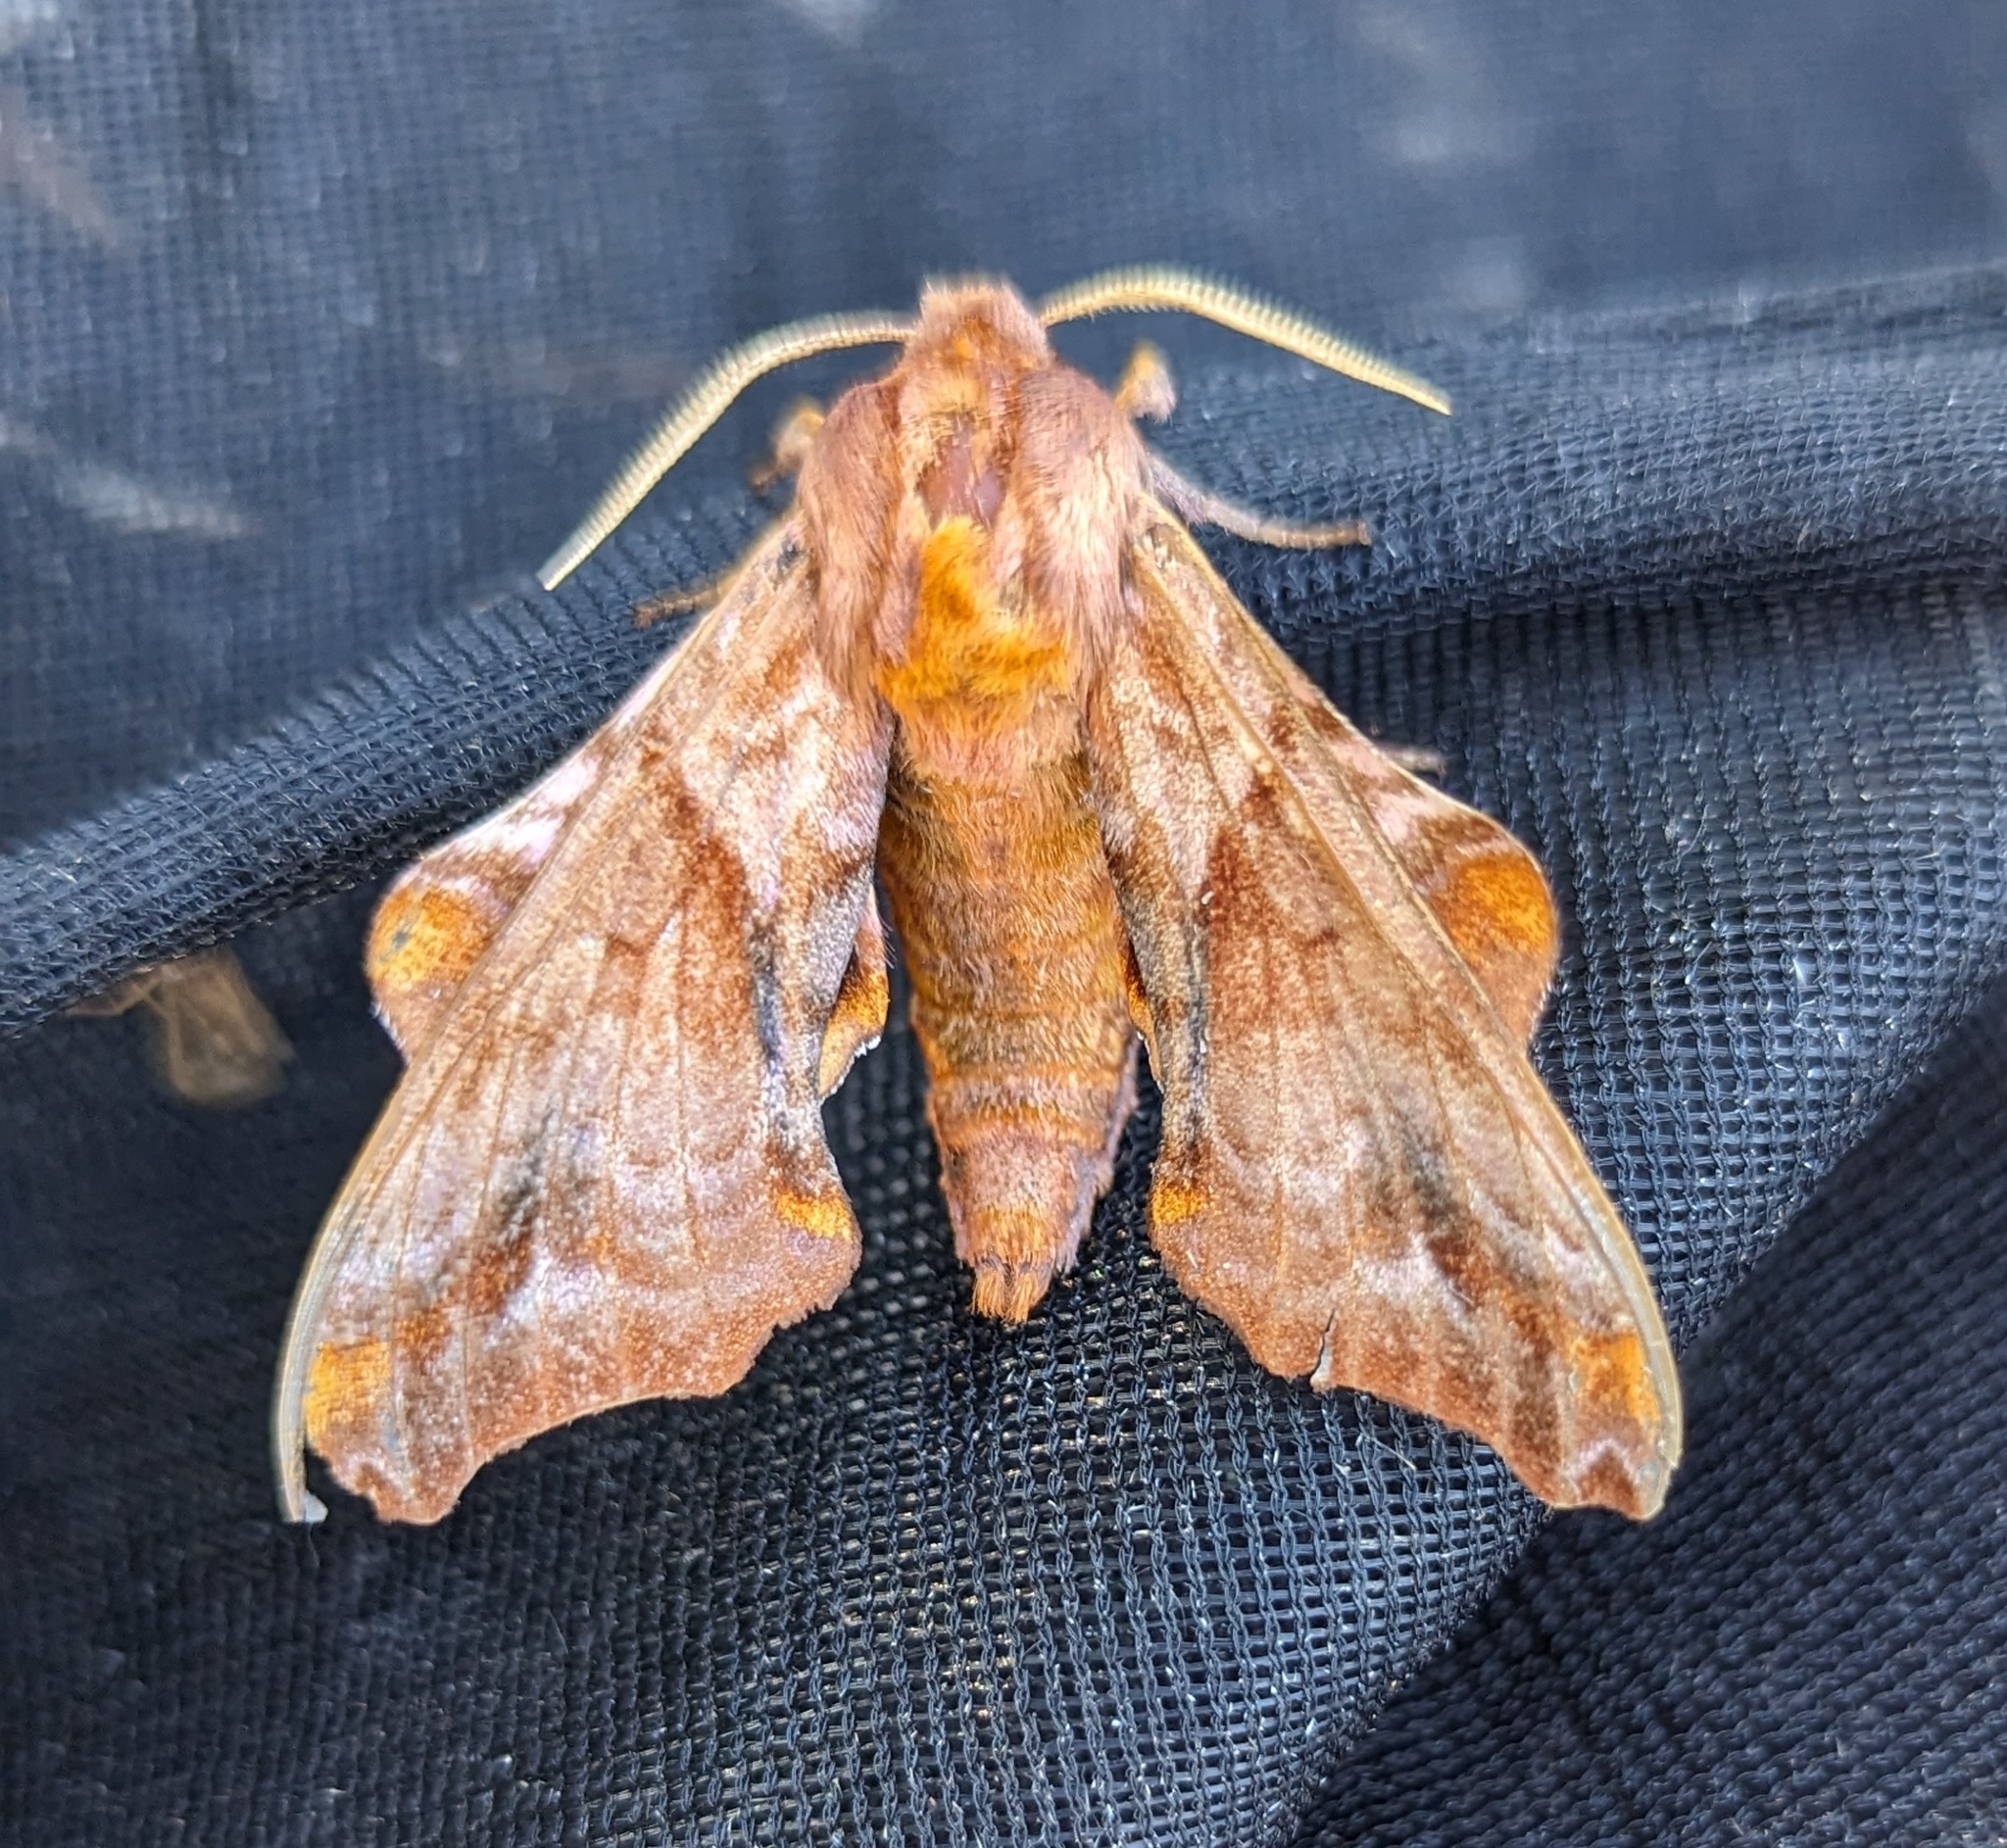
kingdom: Animalia
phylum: Arthropoda
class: Insecta
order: Lepidoptera
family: Sphingidae
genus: Paonias
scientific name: Paonias myops
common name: Small-eyed sphinx
